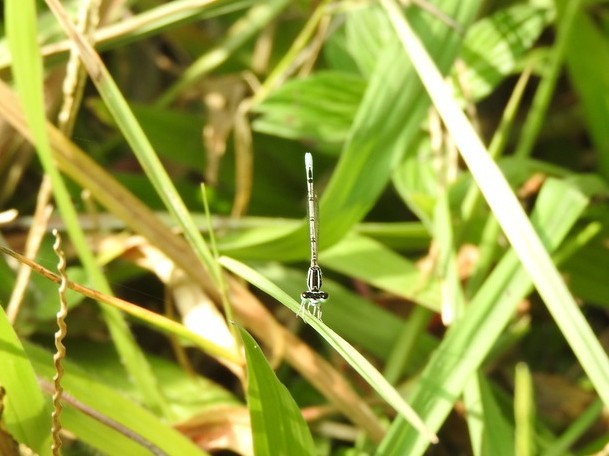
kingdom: Animalia
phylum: Arthropoda
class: Insecta
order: Odonata
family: Coenagrionidae
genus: Agriocnemis
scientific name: Agriocnemis pieris
